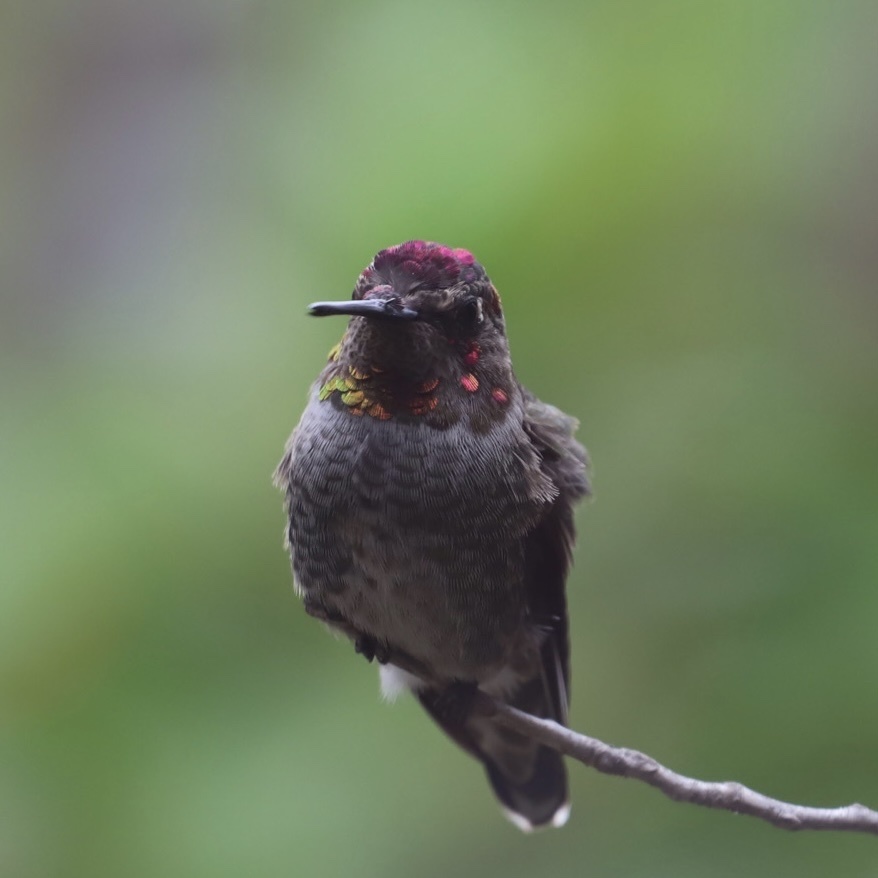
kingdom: Animalia
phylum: Chordata
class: Aves
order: Apodiformes
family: Trochilidae
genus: Calypte
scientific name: Calypte anna
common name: Anna's hummingbird
